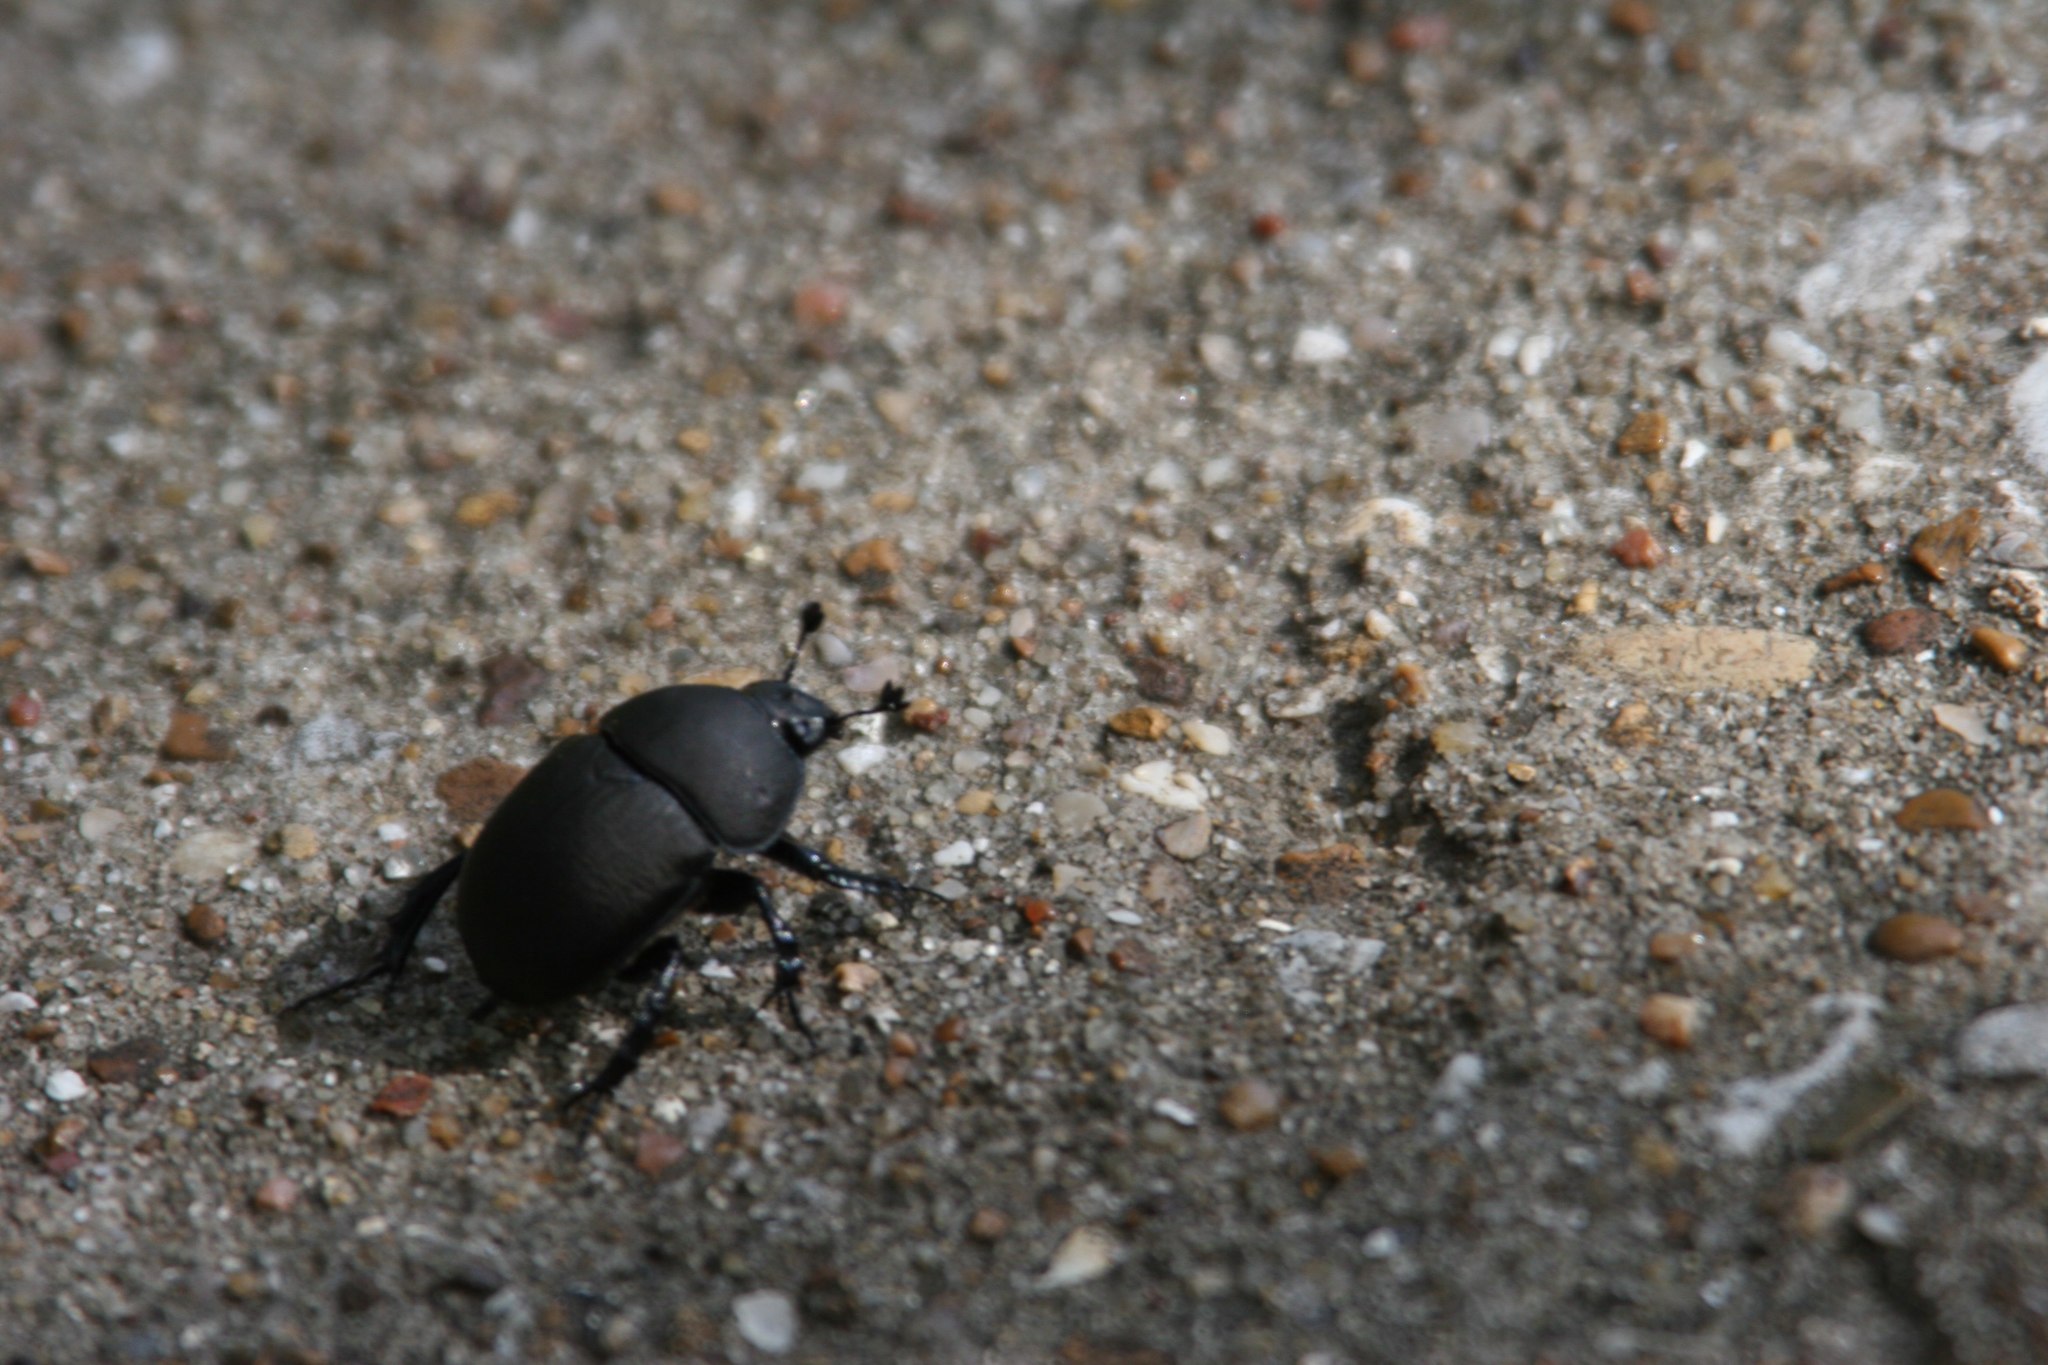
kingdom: Animalia
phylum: Arthropoda
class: Insecta
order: Coleoptera
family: Geotrupidae
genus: Geohowdenius
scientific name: Geohowdenius opacus
